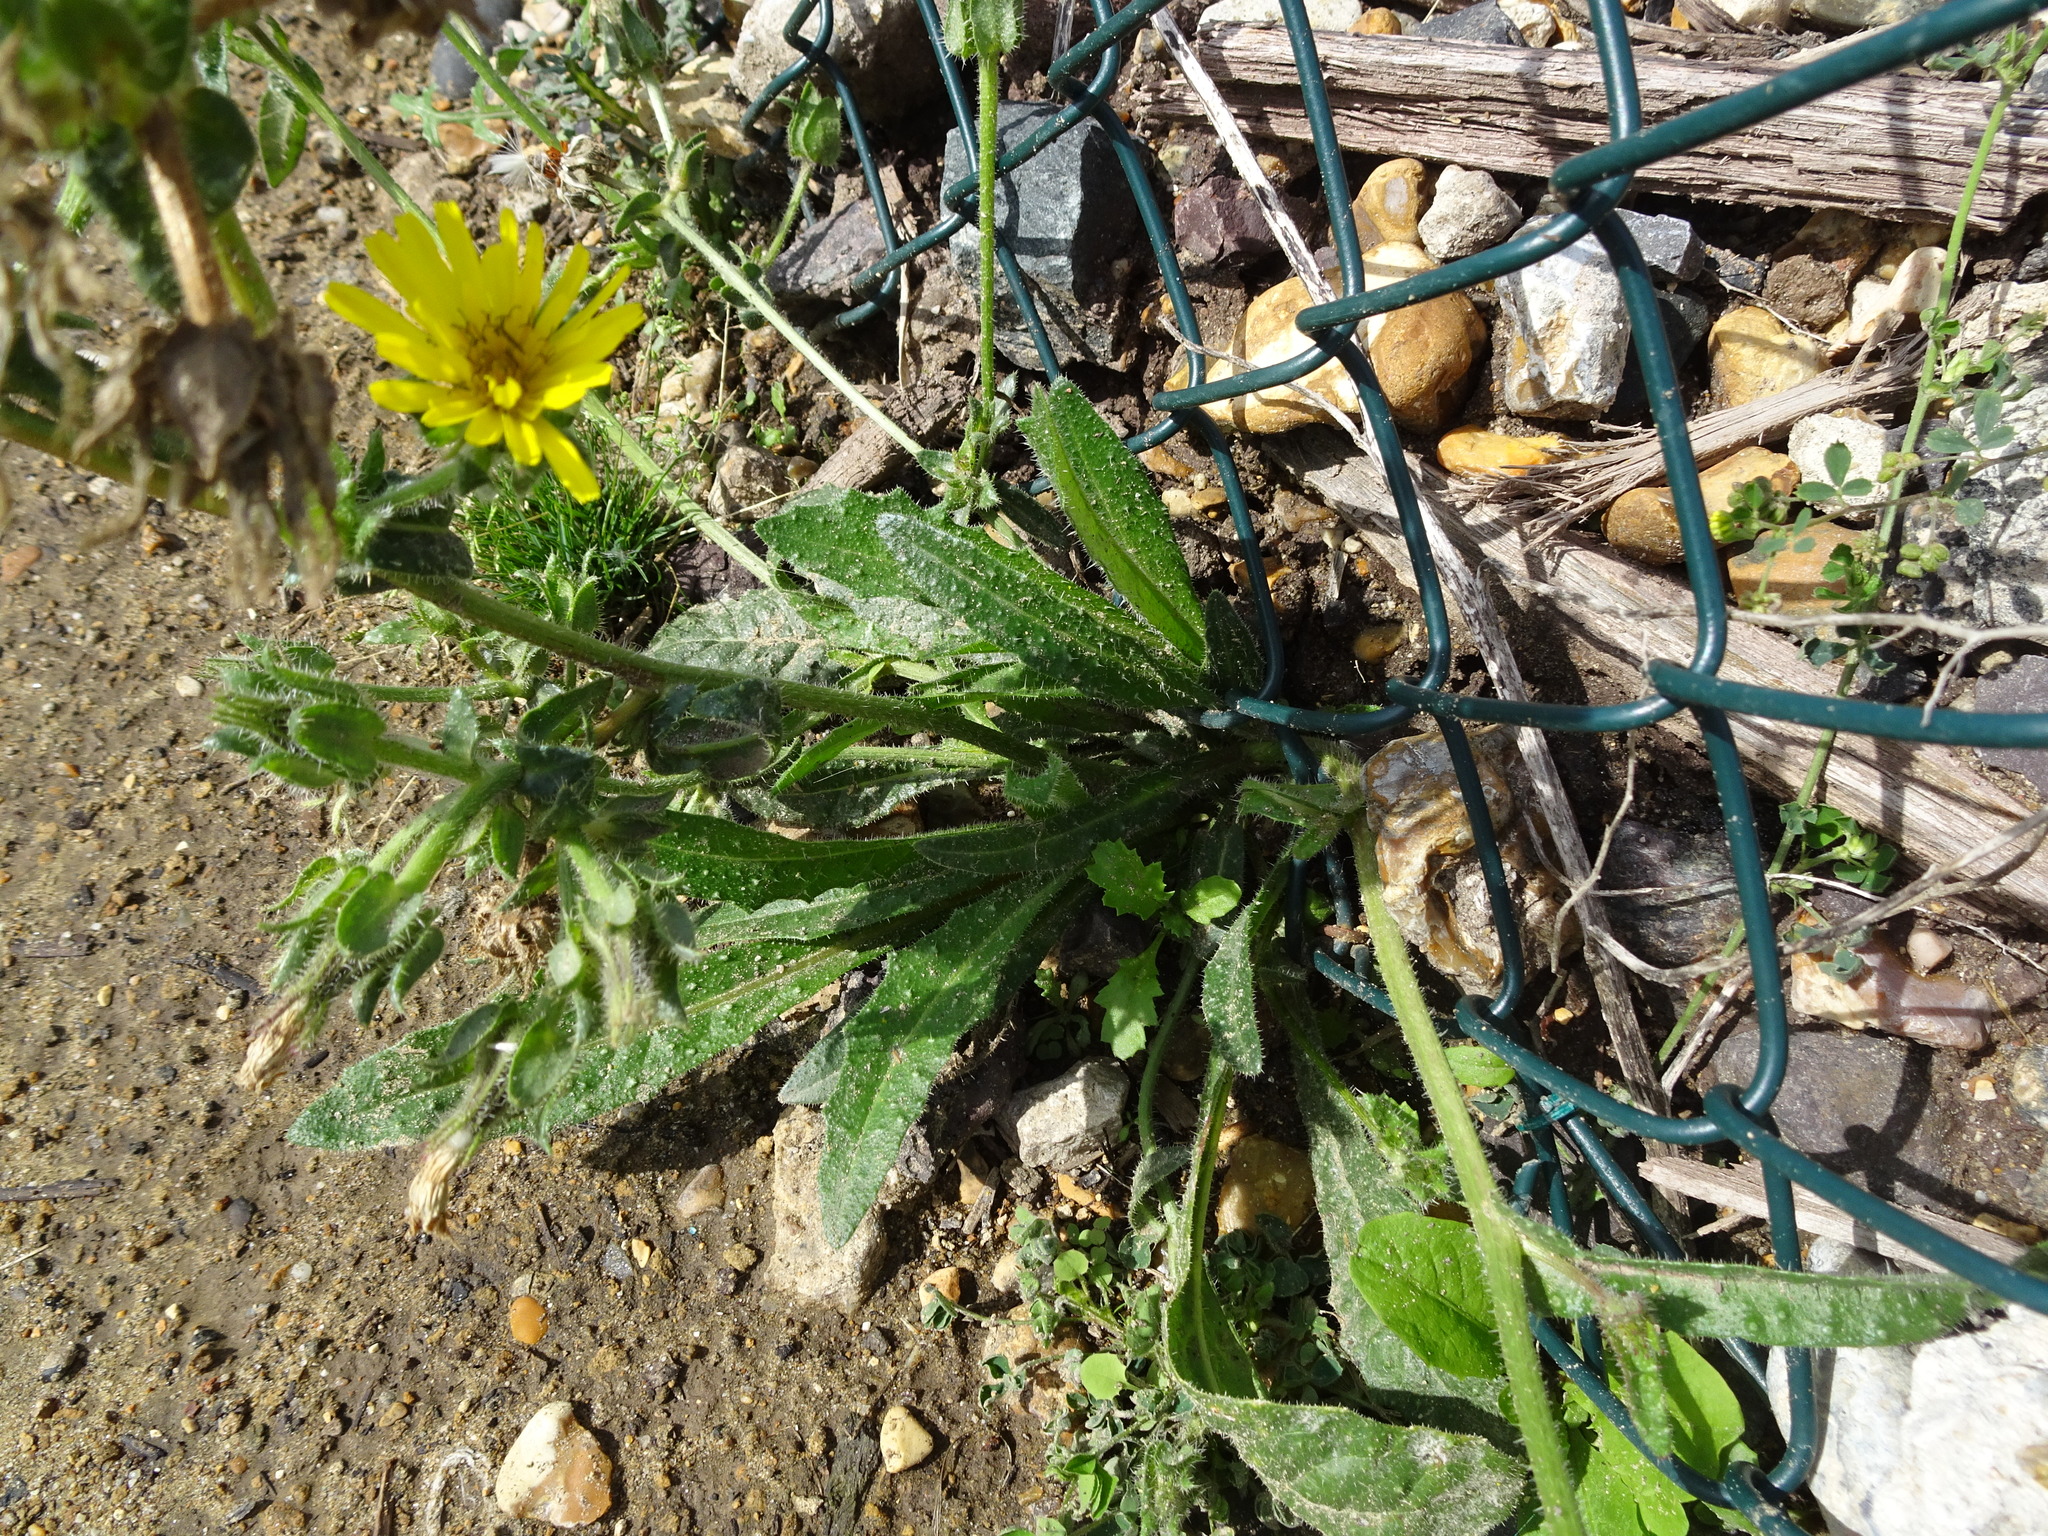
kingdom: Plantae
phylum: Tracheophyta
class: Magnoliopsida
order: Asterales
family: Asteraceae
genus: Helminthotheca
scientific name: Helminthotheca echioides
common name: Ox-tongue
